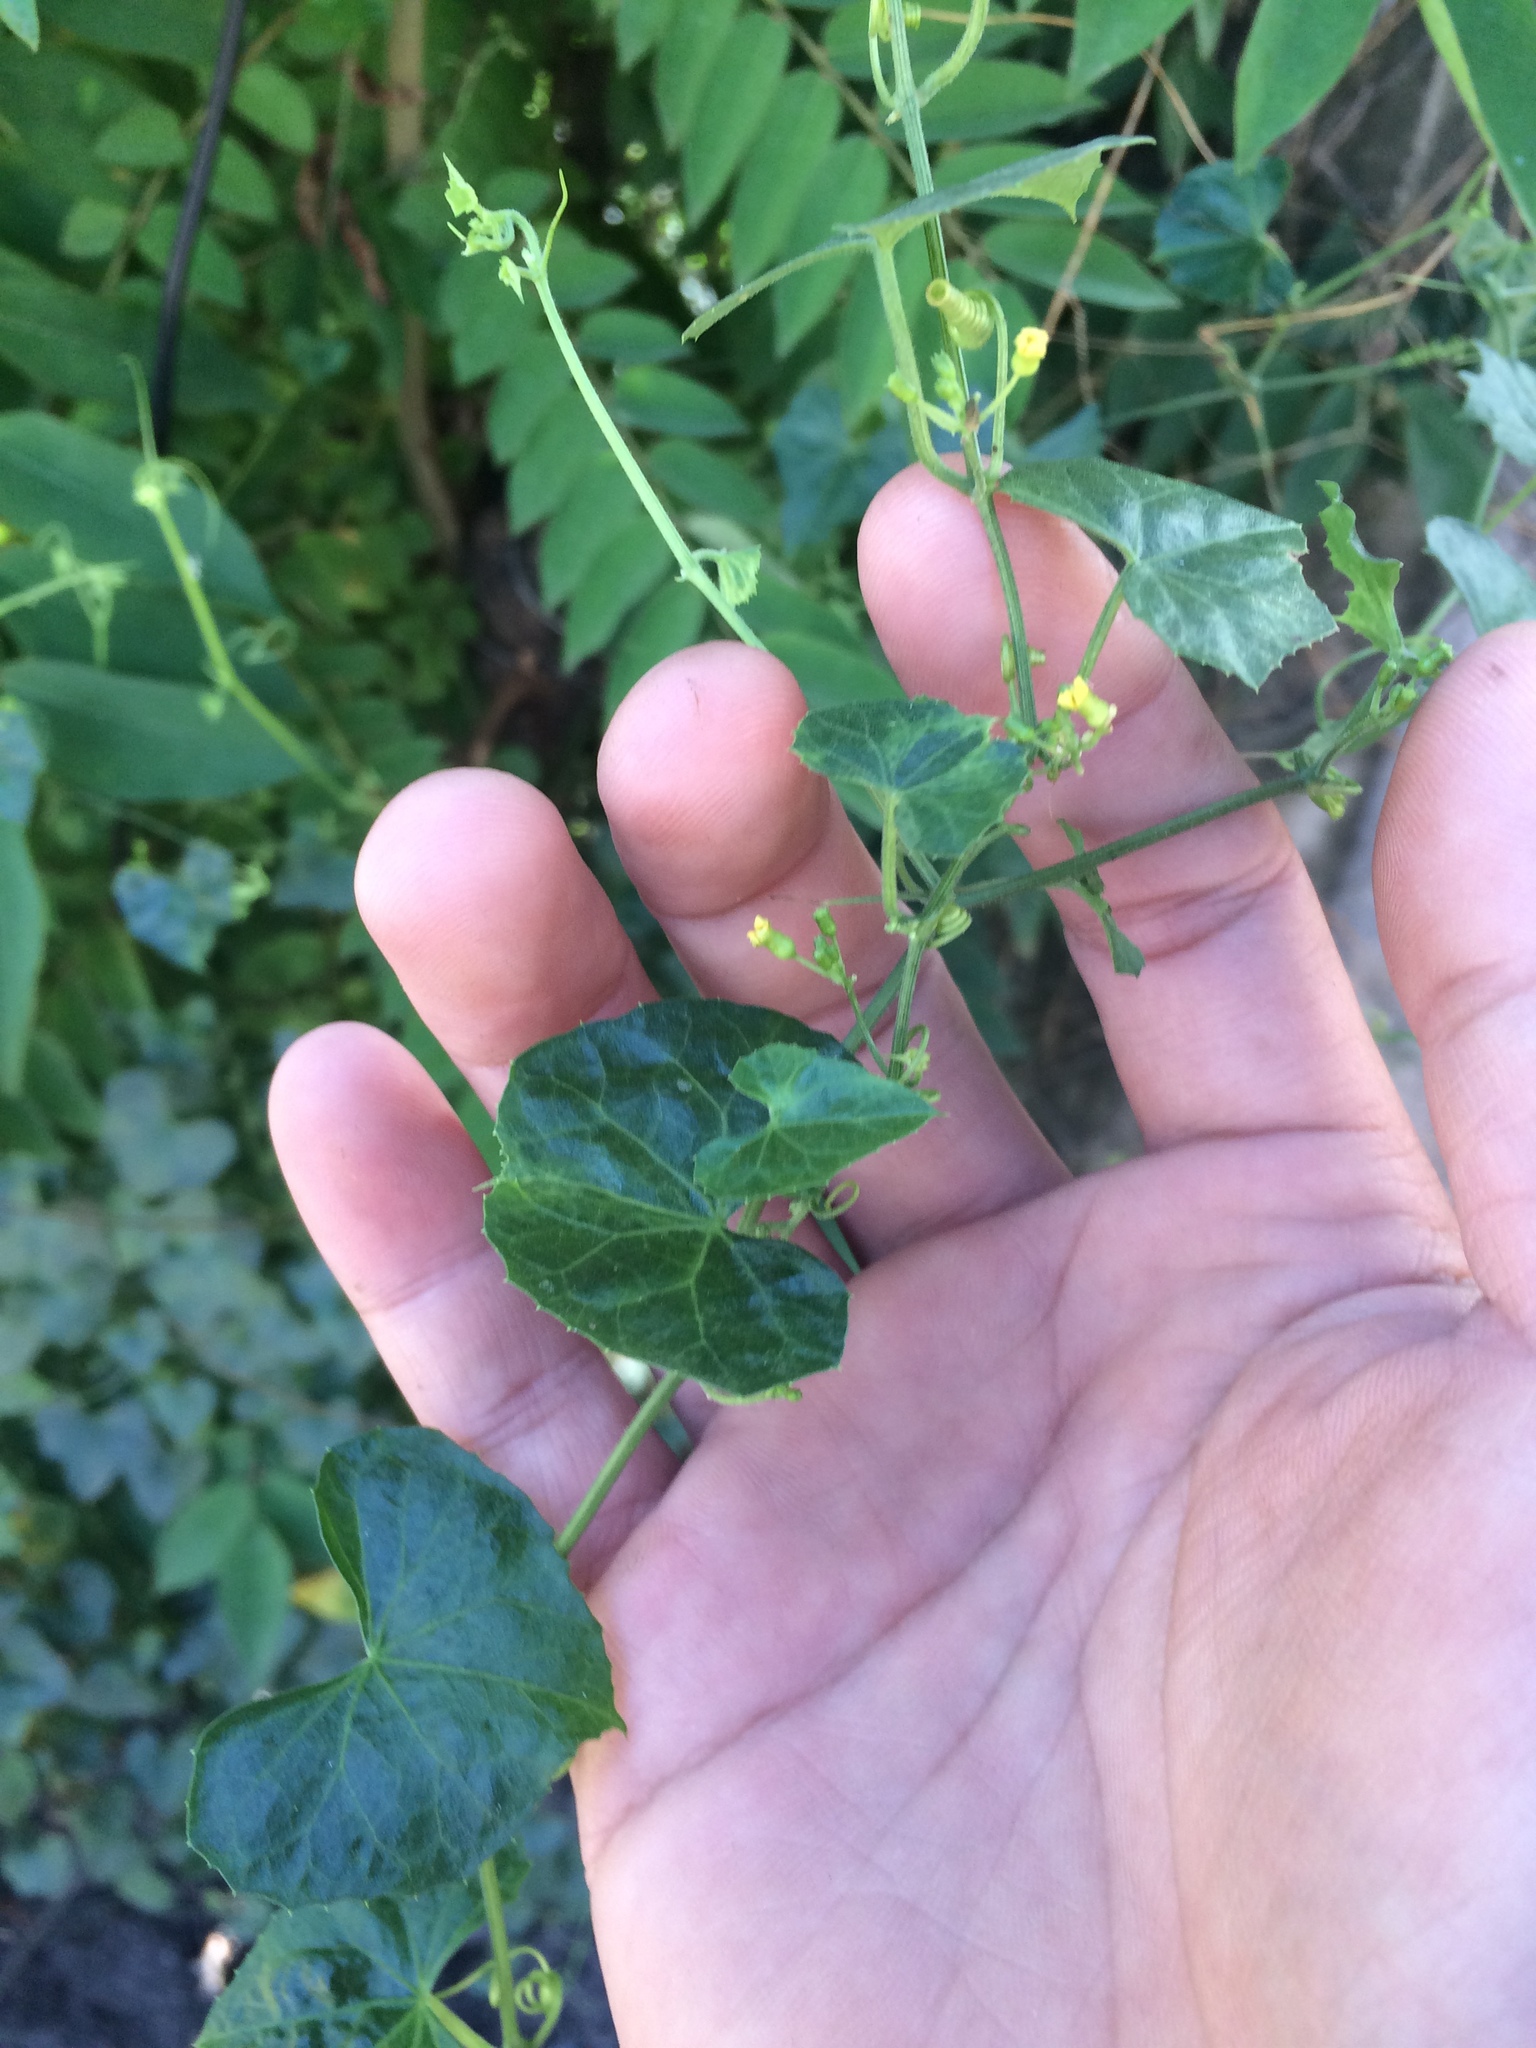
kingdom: Plantae
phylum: Tracheophyta
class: Magnoliopsida
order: Cucurbitales
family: Cucurbitaceae
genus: Melothria
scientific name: Melothria pendula
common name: Creeping-cucumber
